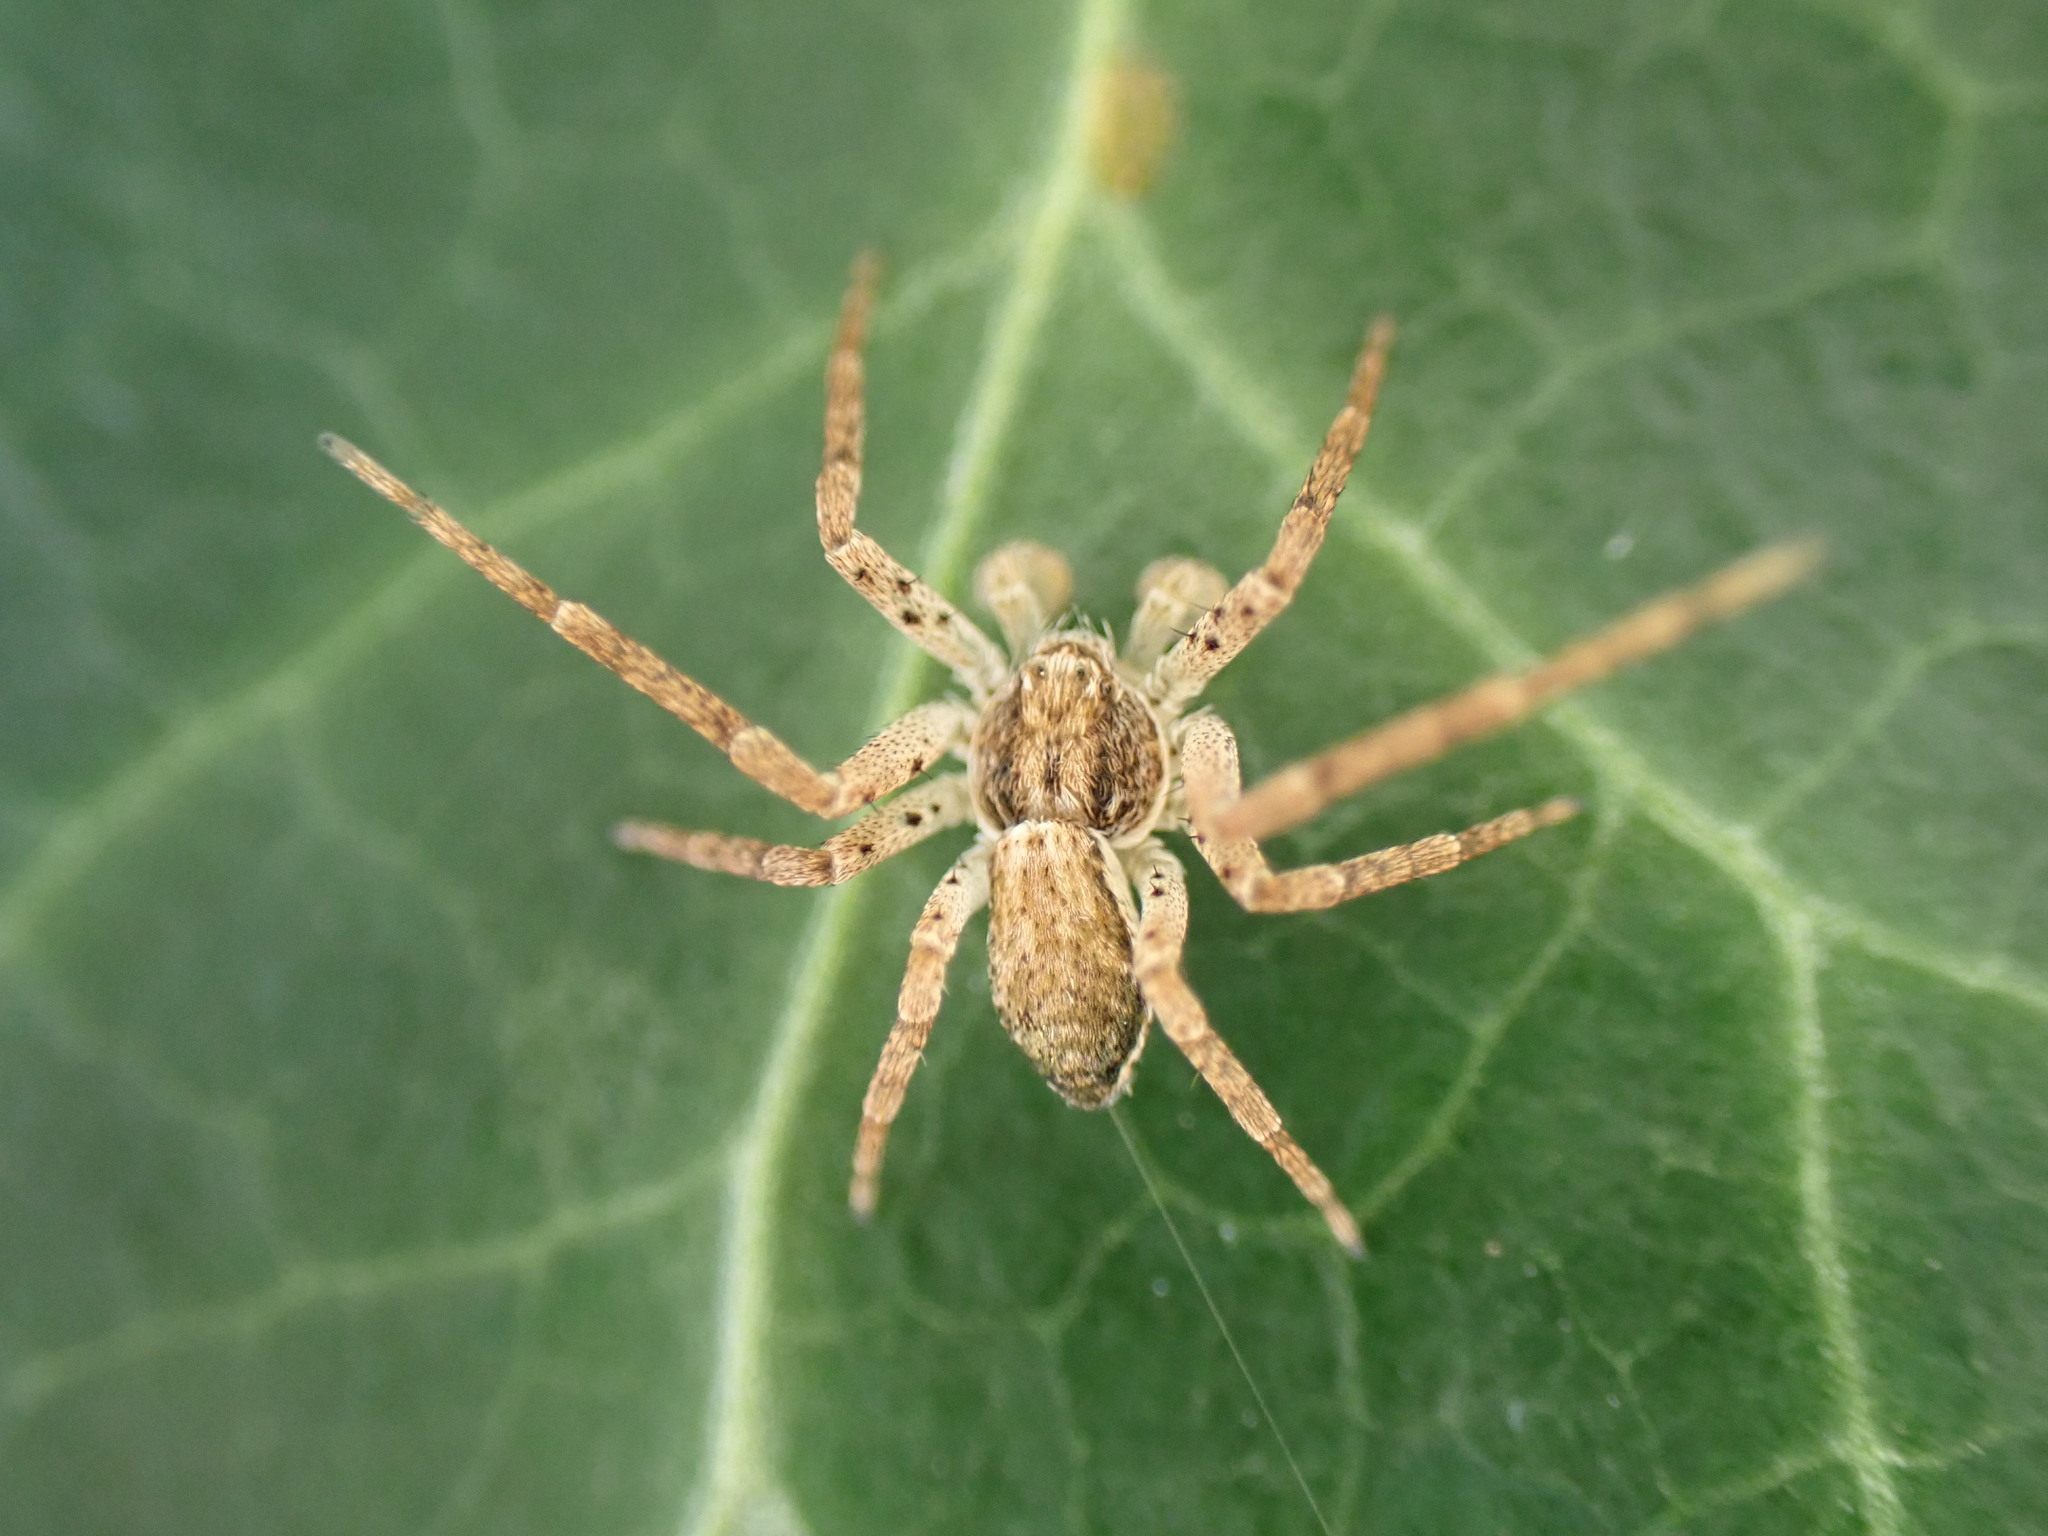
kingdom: Animalia
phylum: Arthropoda
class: Arachnida
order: Araneae
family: Philodromidae
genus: Philodromus
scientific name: Philodromus dispar
